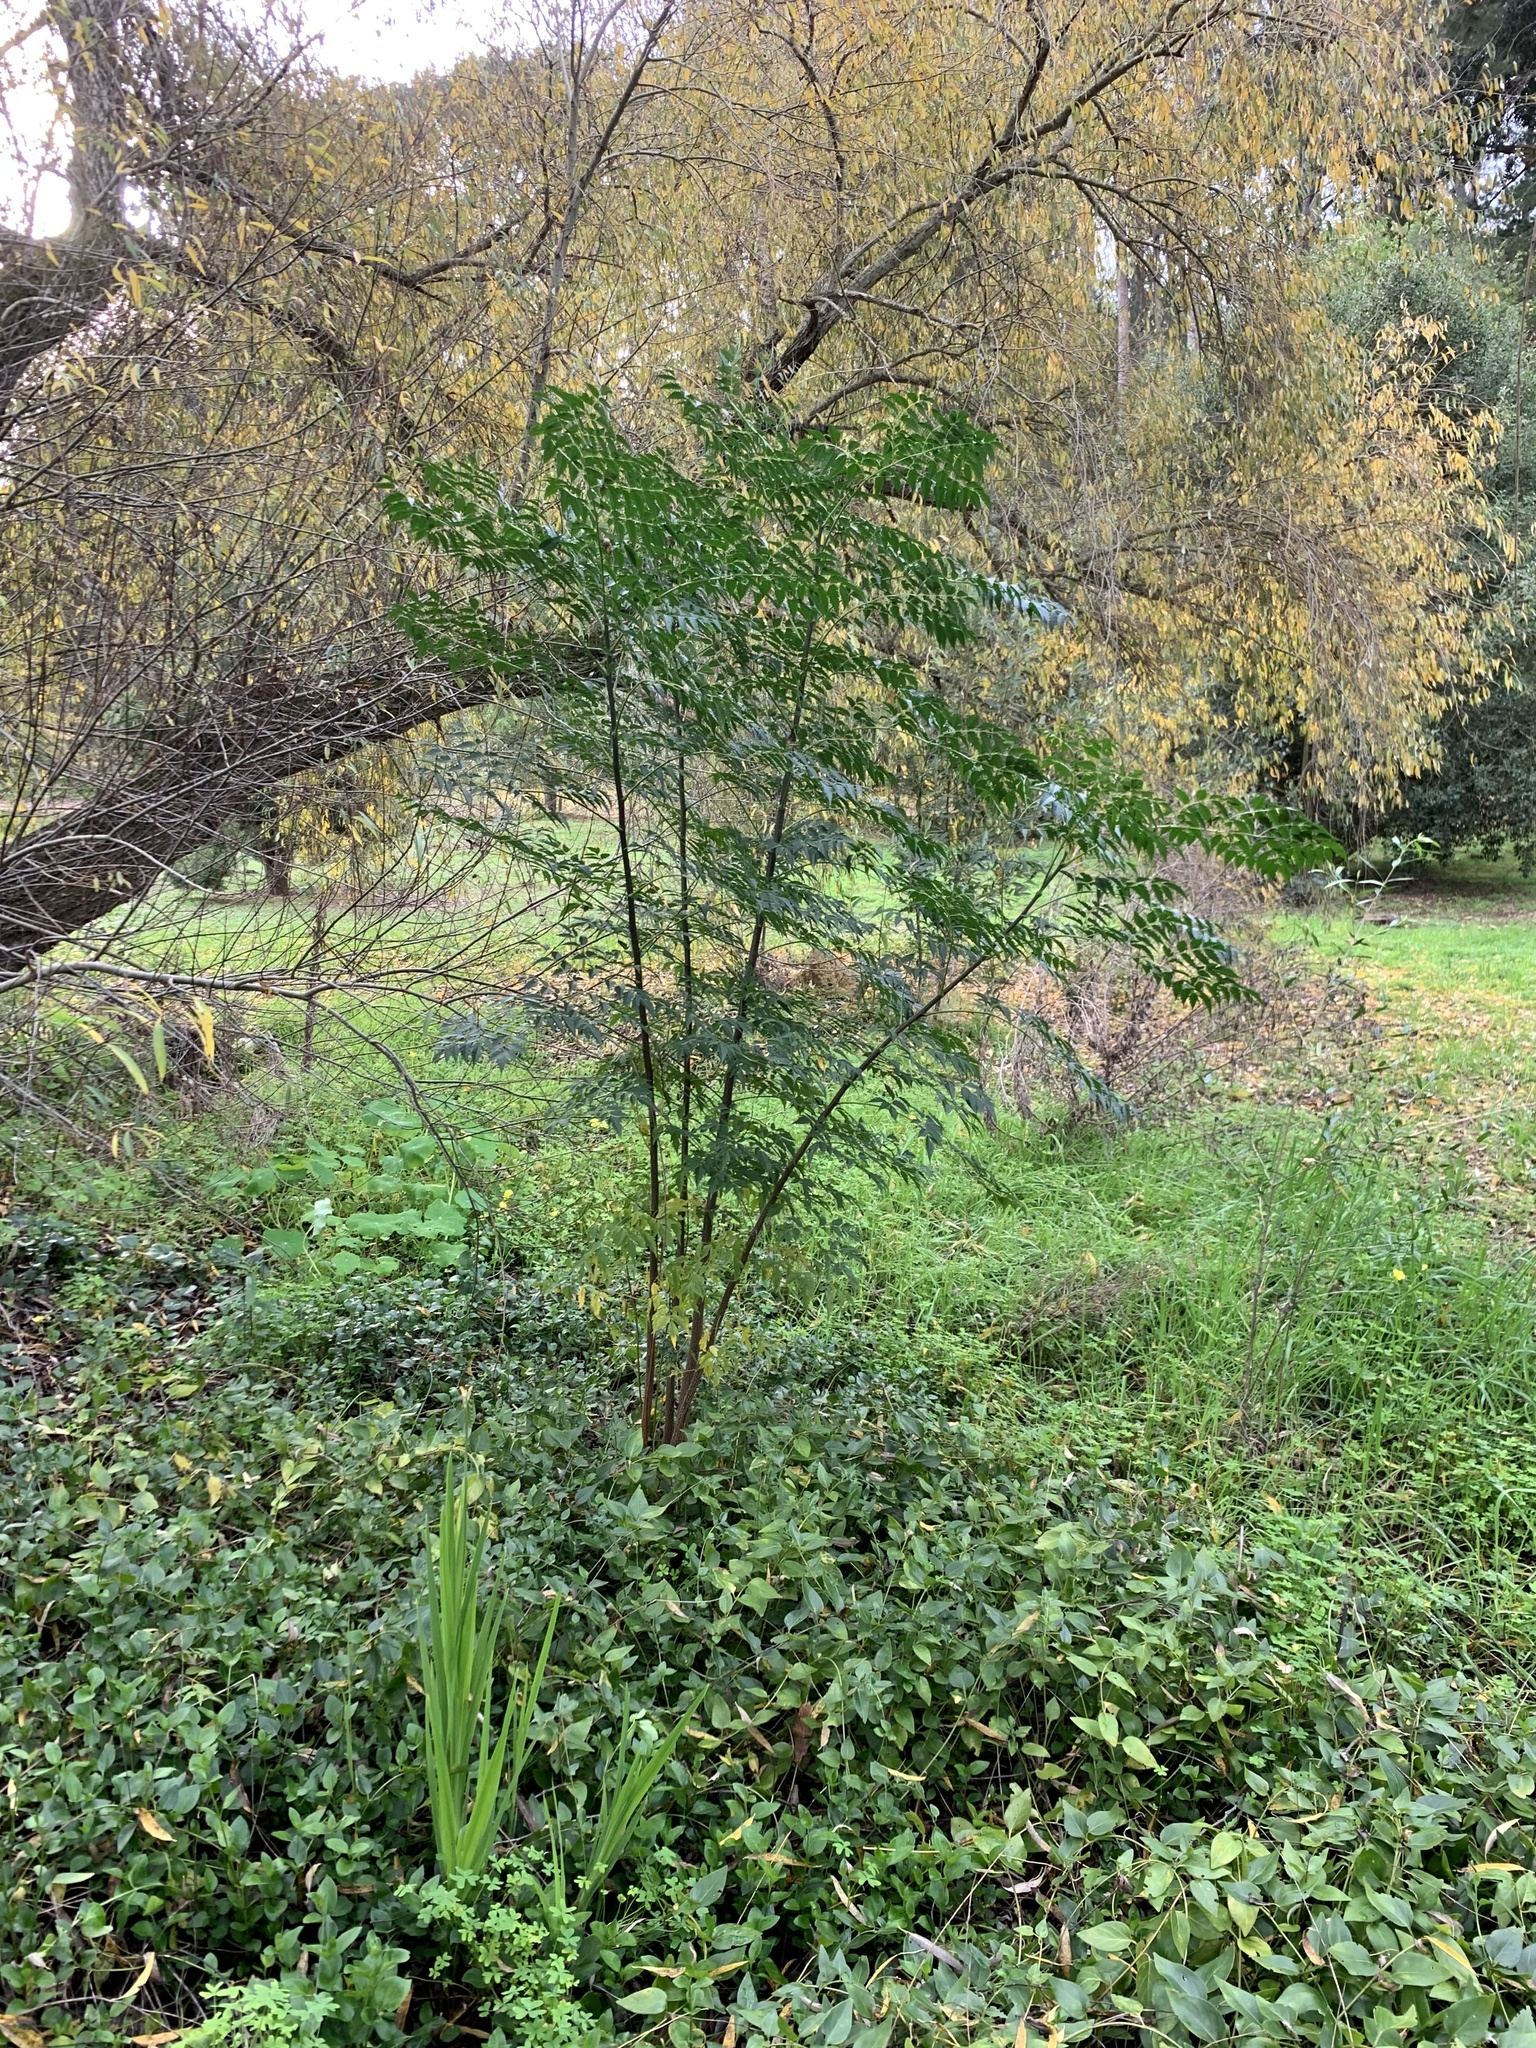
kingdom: Plantae
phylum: Tracheophyta
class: Magnoliopsida
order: Sapindales
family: Meliaceae
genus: Melia
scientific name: Melia azedarach
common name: Chinaberrytree
